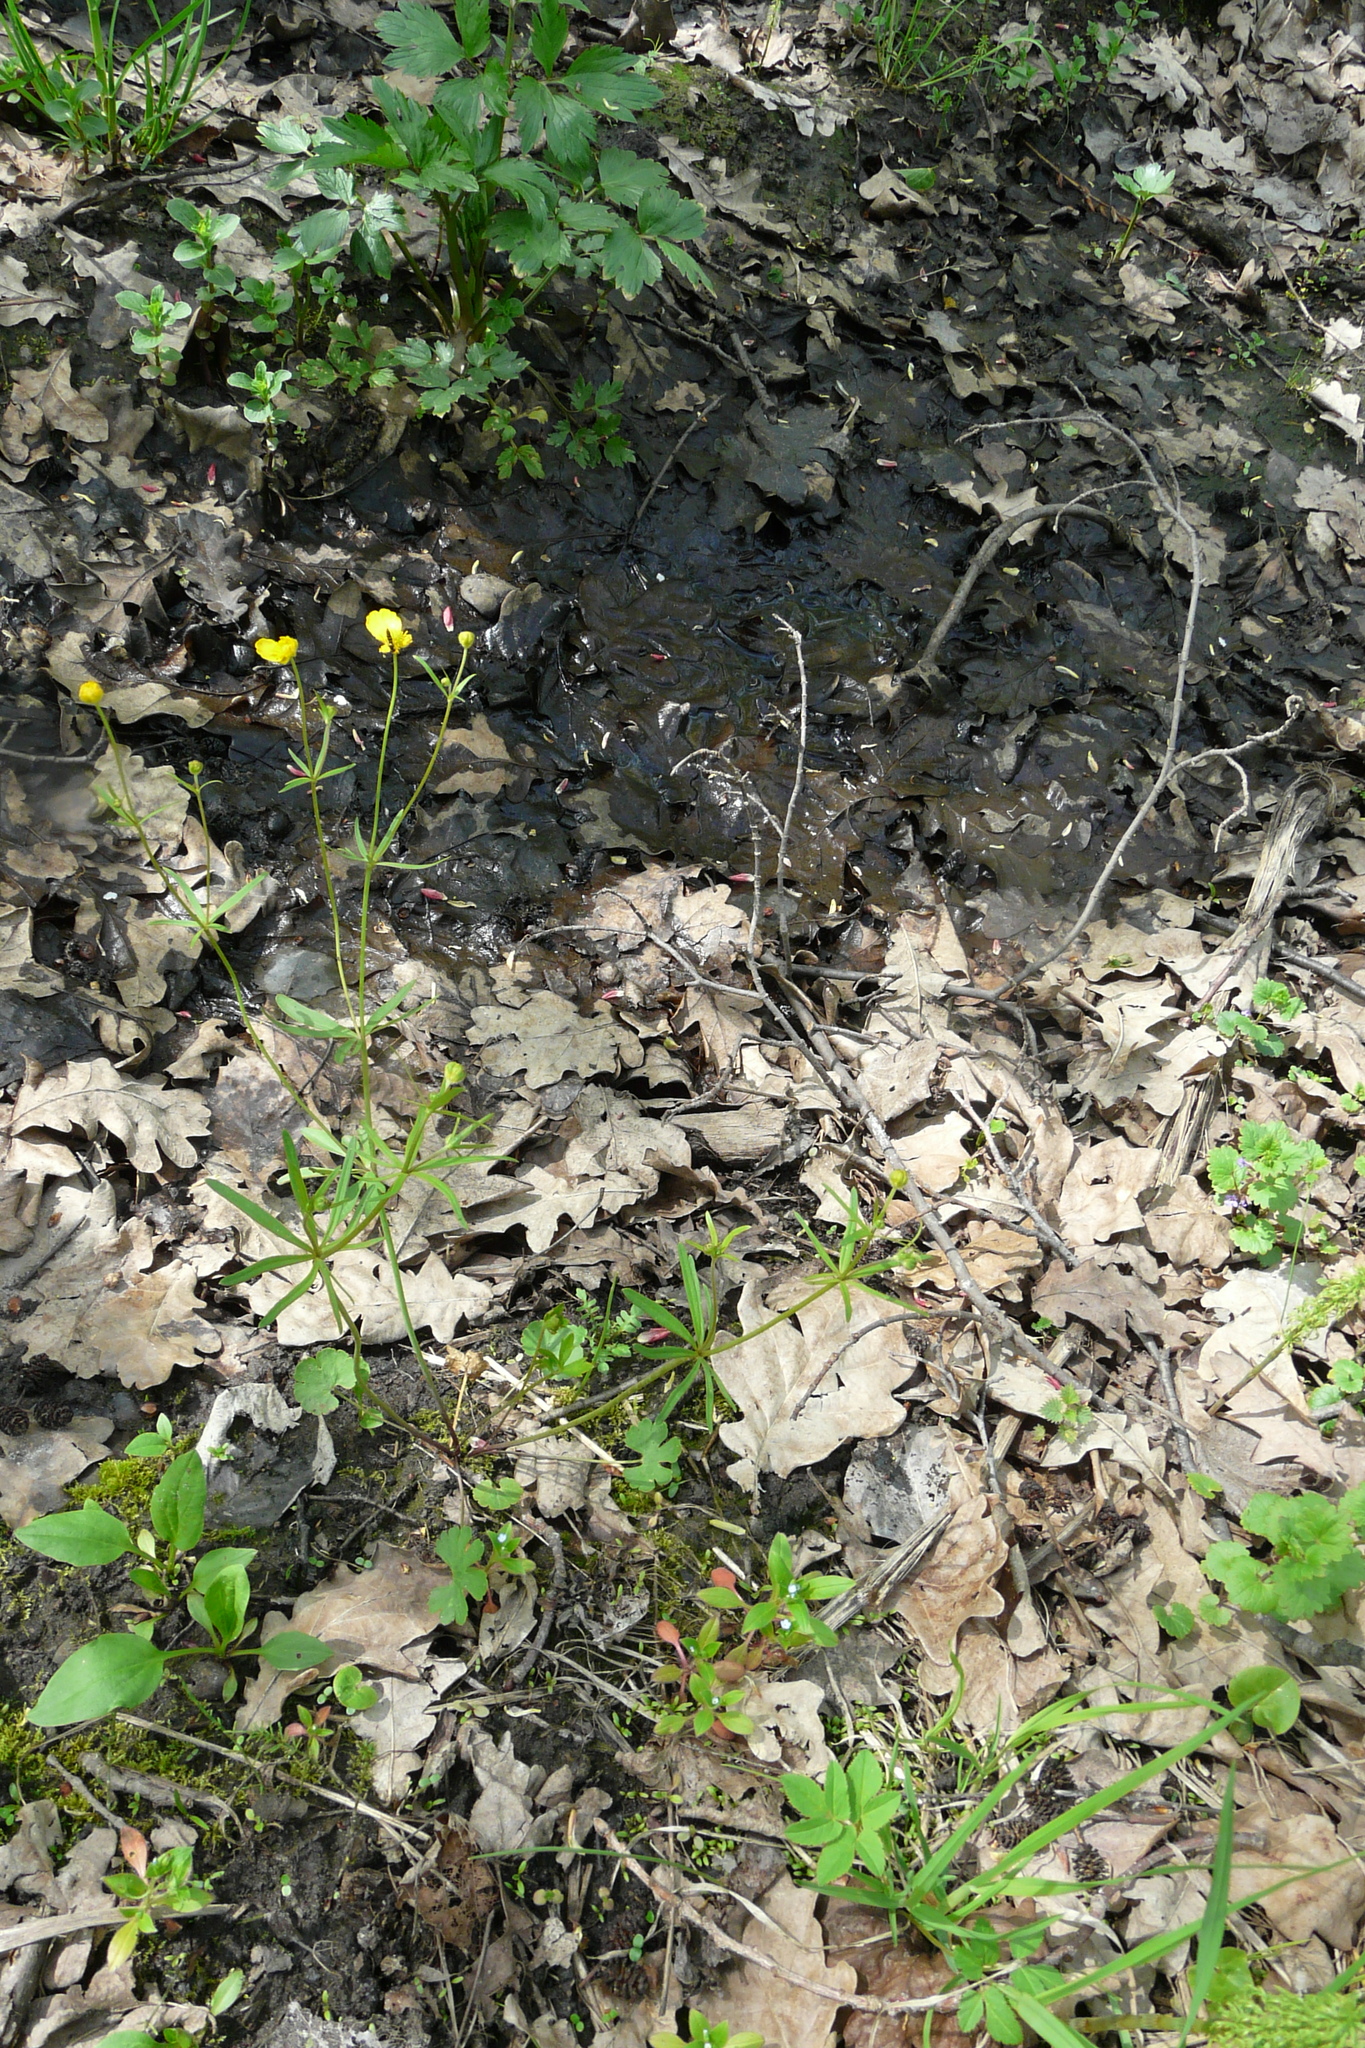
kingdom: Plantae
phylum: Tracheophyta
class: Magnoliopsida
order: Ranunculales
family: Ranunculaceae
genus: Ranunculus
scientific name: Ranunculus auricomus
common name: Goldilocks buttercup
